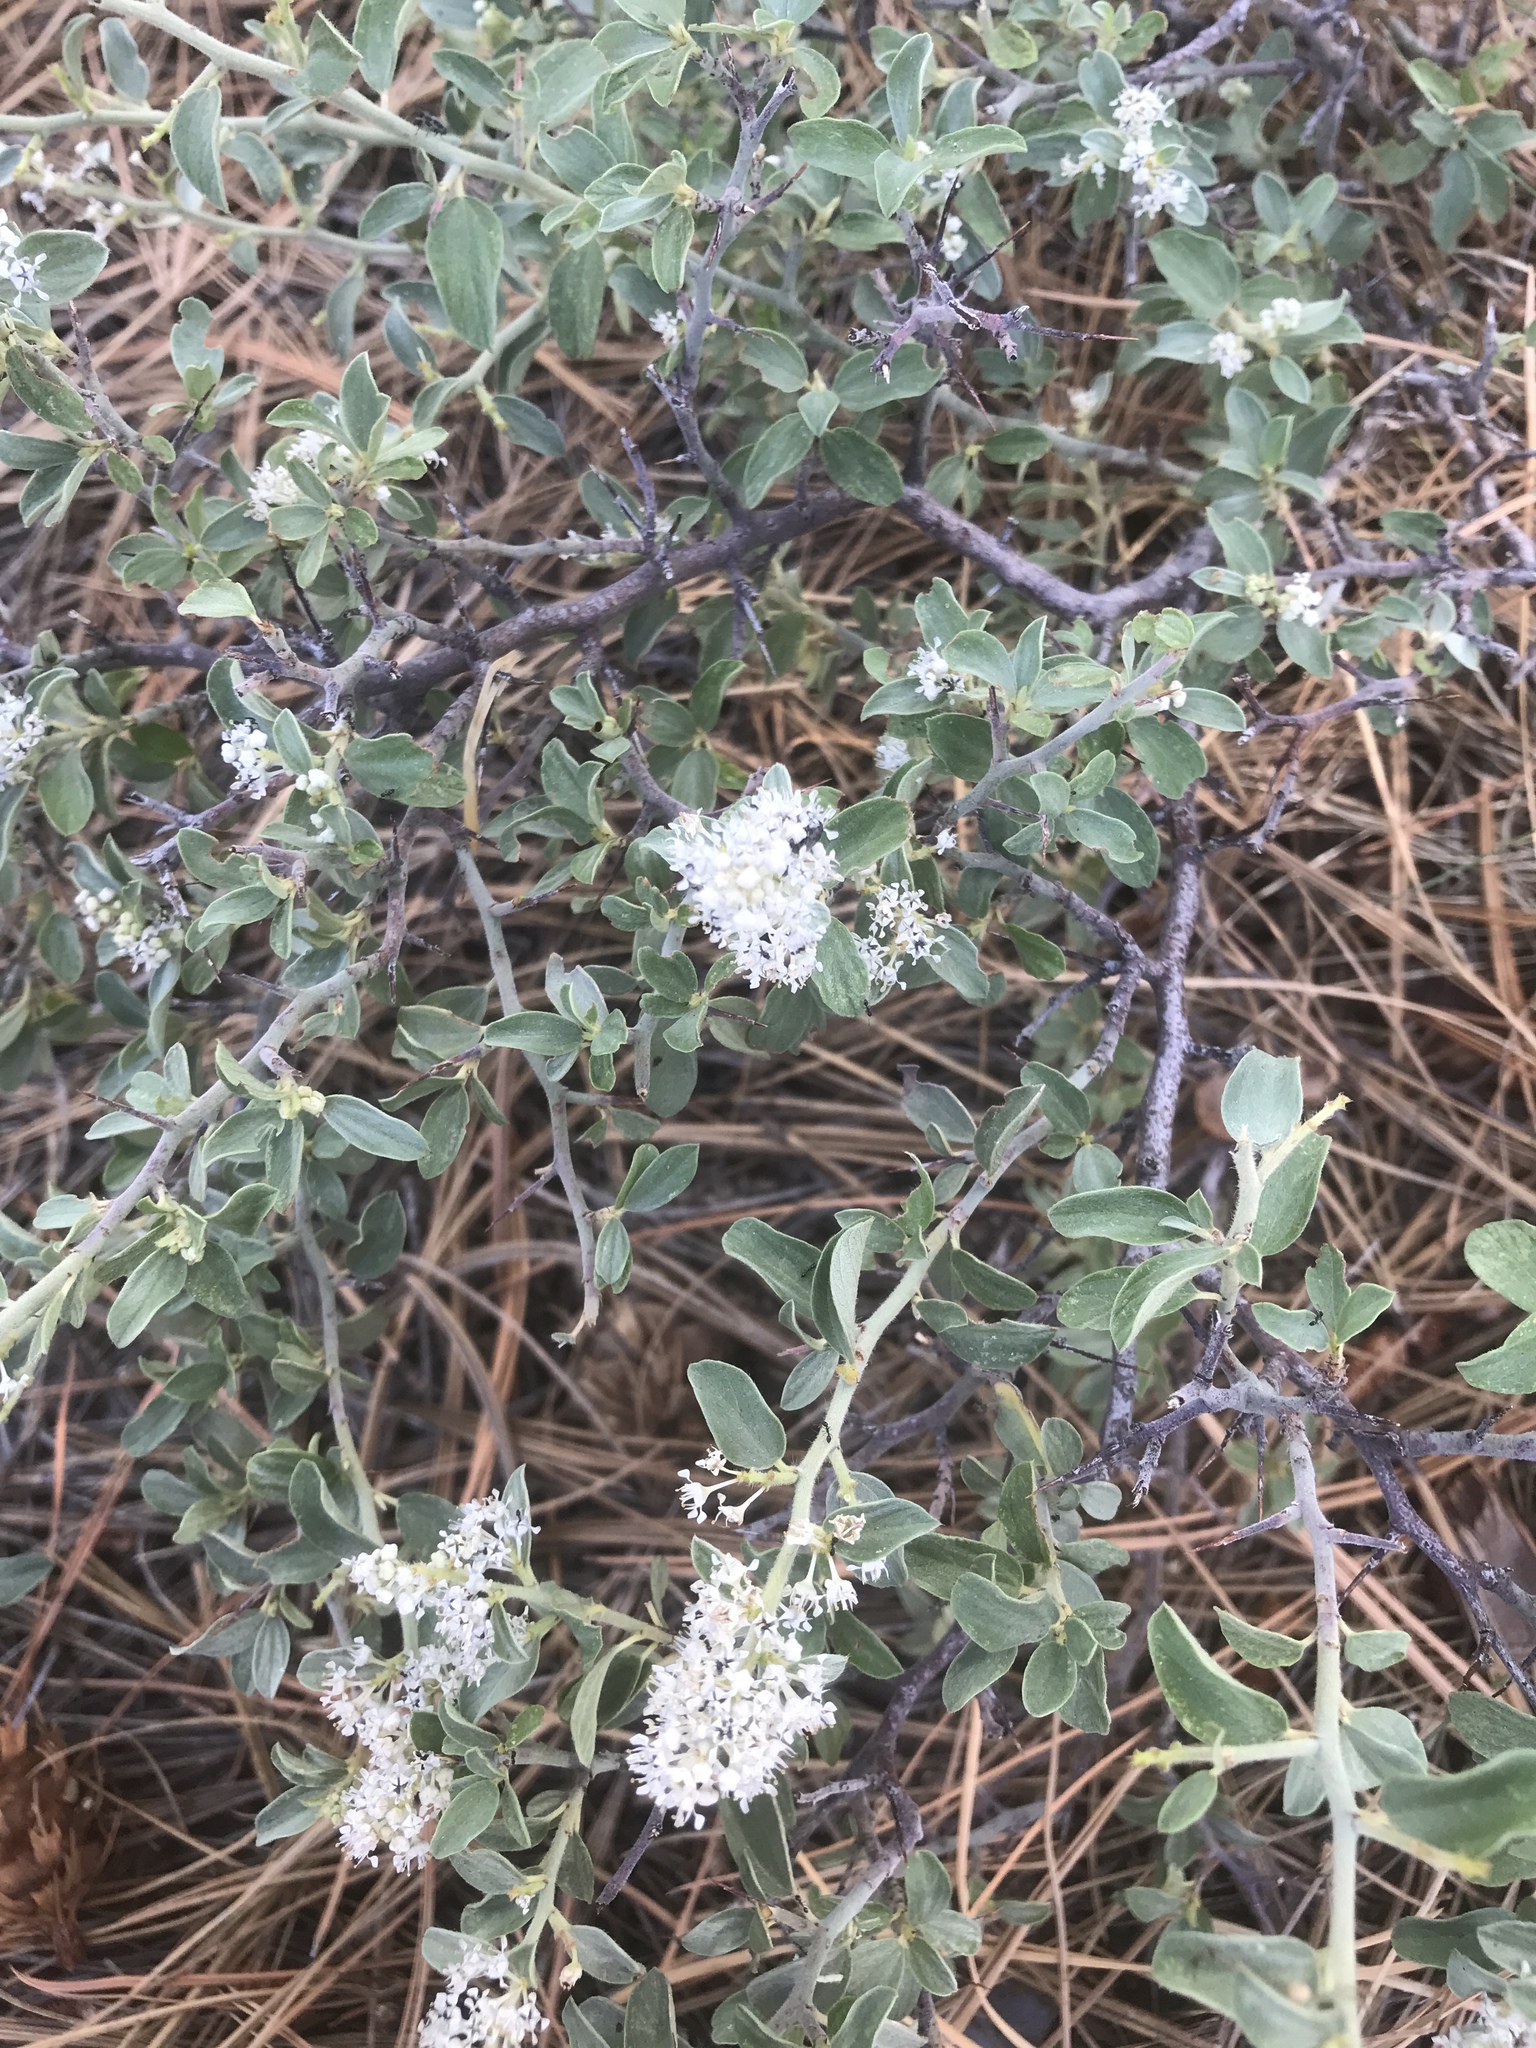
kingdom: Plantae
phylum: Tracheophyta
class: Magnoliopsida
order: Rosales
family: Rhamnaceae
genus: Ceanothus
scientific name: Ceanothus fendleri
